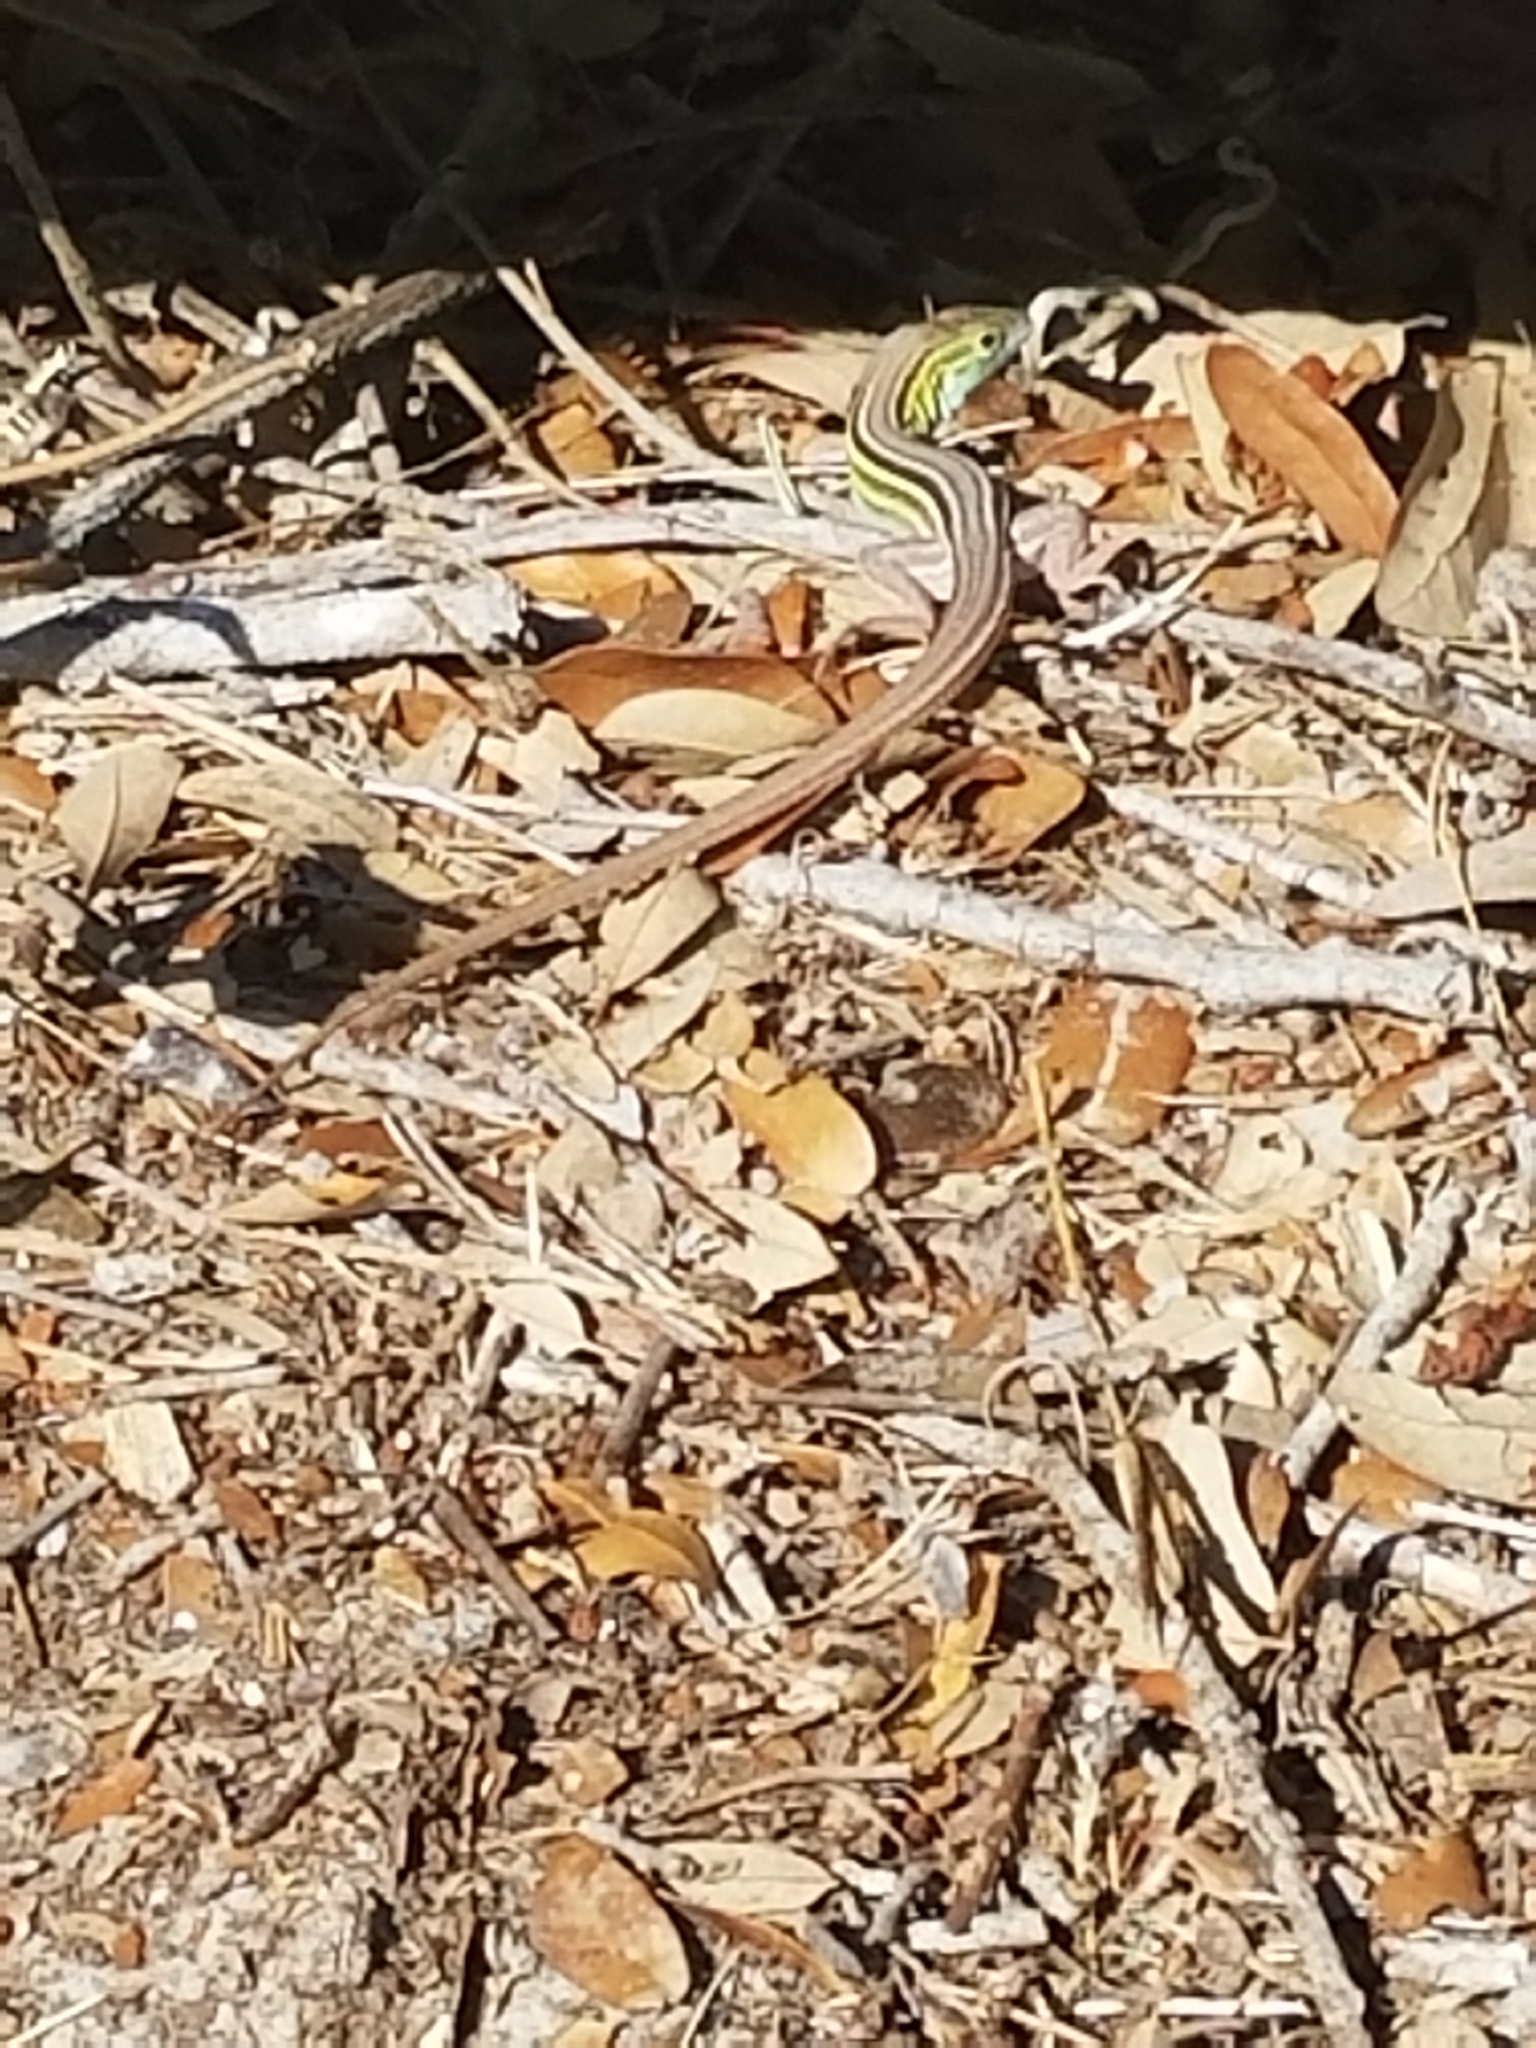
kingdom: Animalia
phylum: Chordata
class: Squamata
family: Teiidae
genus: Aspidoscelis
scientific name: Aspidoscelis sexlineatus
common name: Six-lined racerunner
